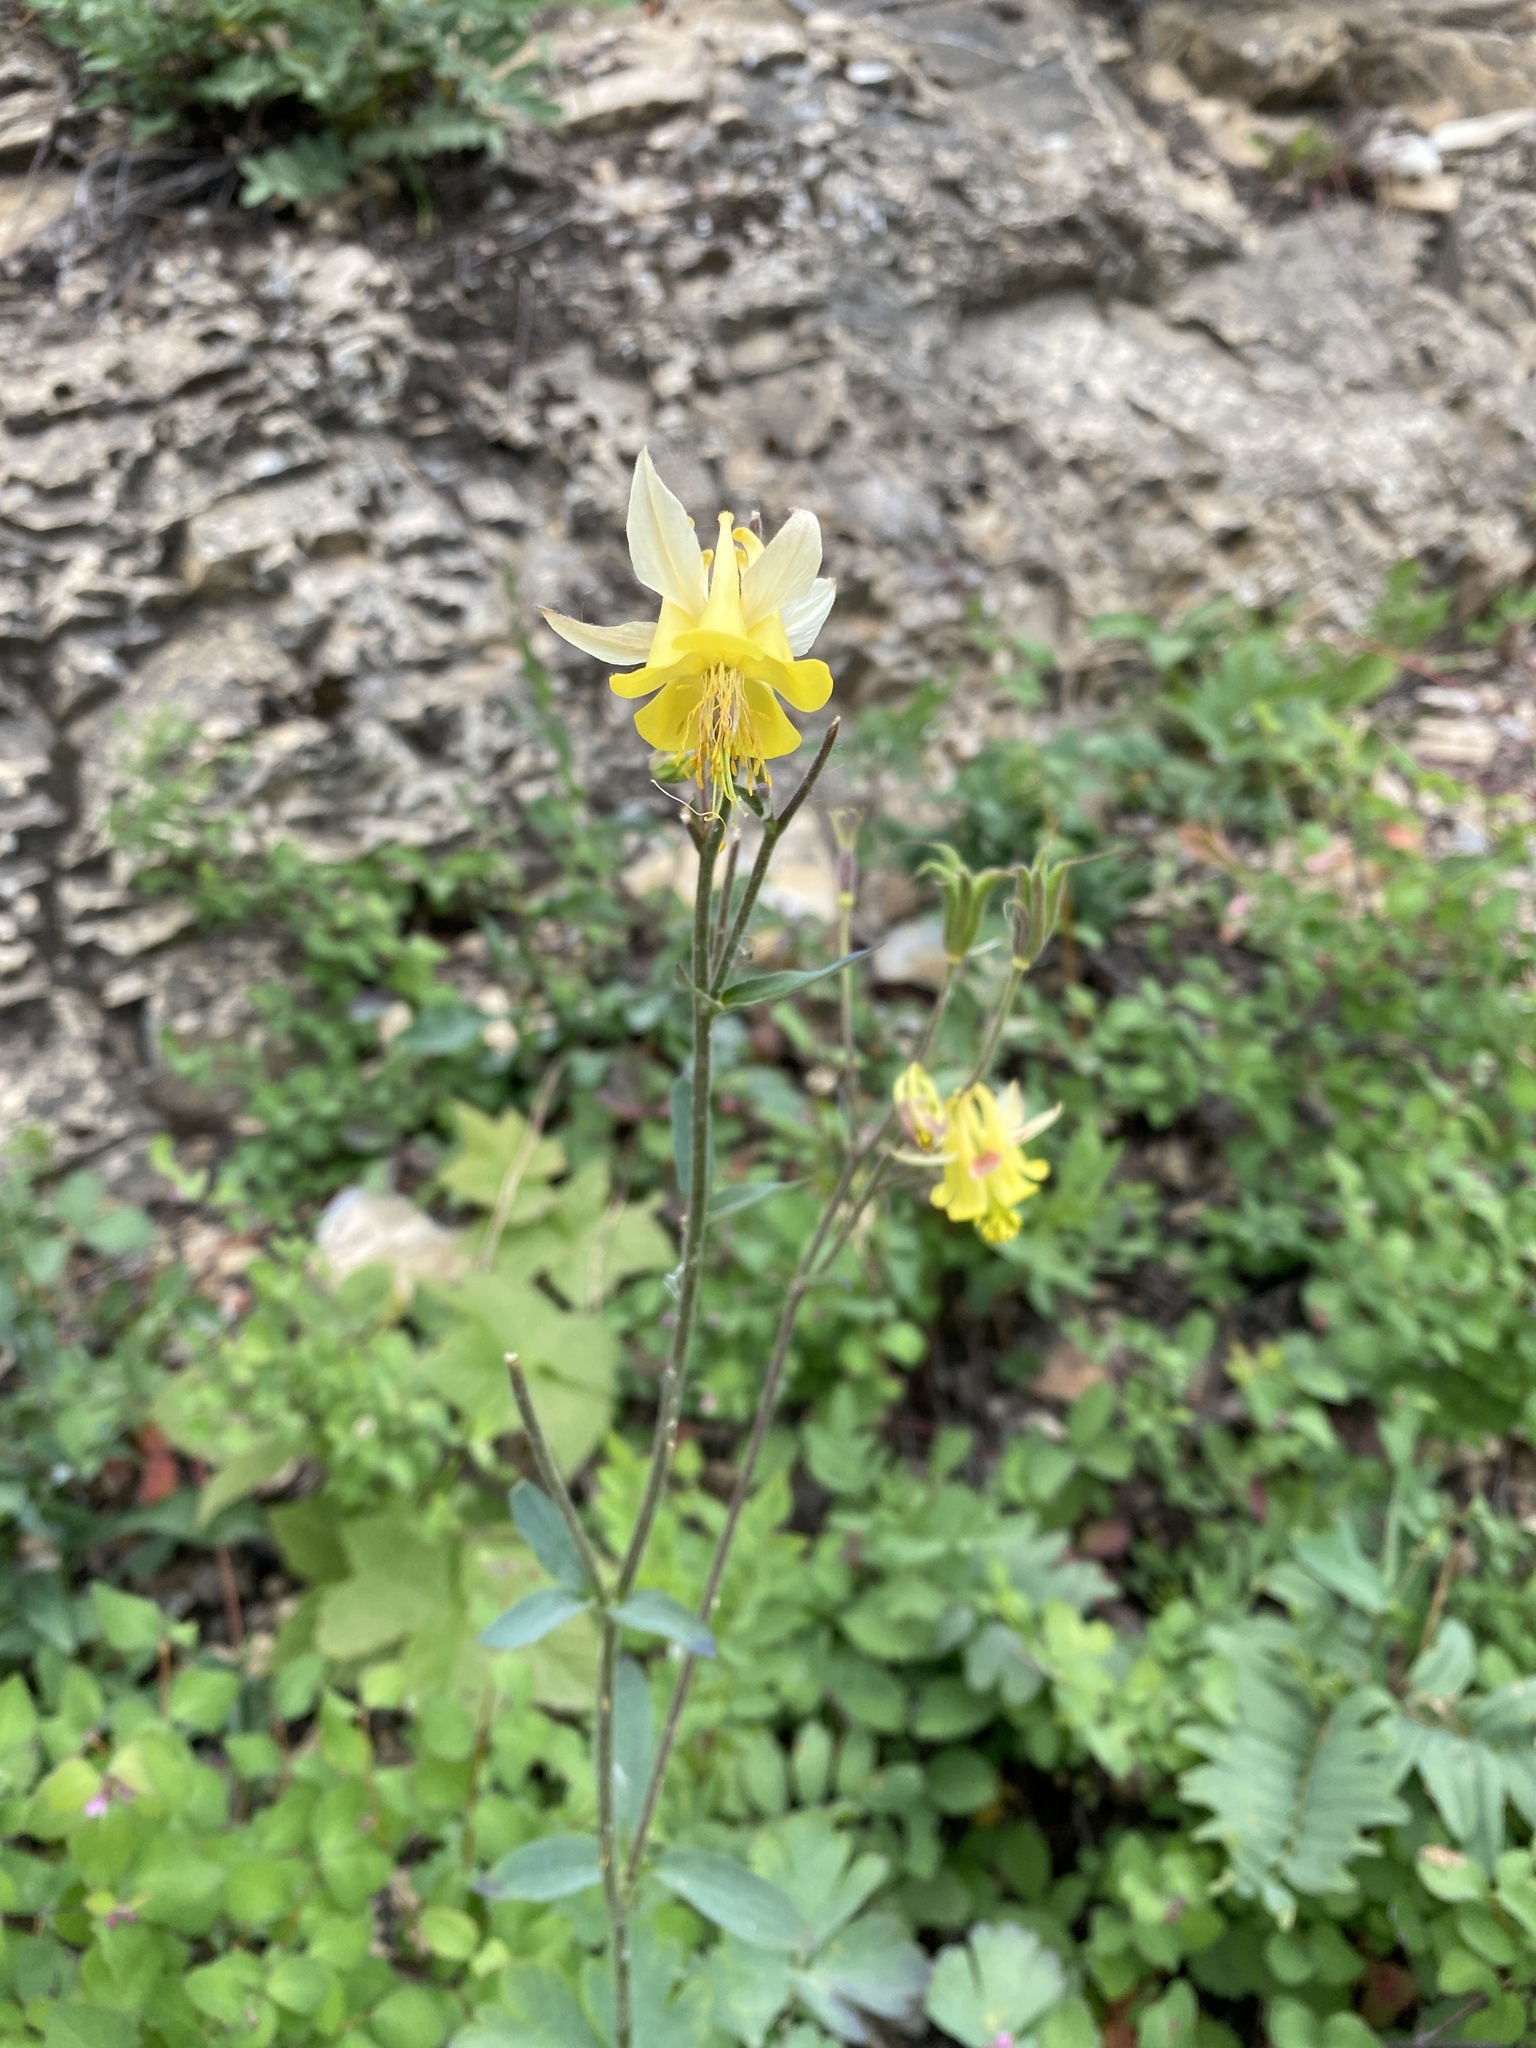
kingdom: Plantae
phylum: Tracheophyta
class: Magnoliopsida
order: Ranunculales
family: Ranunculaceae
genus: Aquilegia
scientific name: Aquilegia flavescens
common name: Yellow columbine
